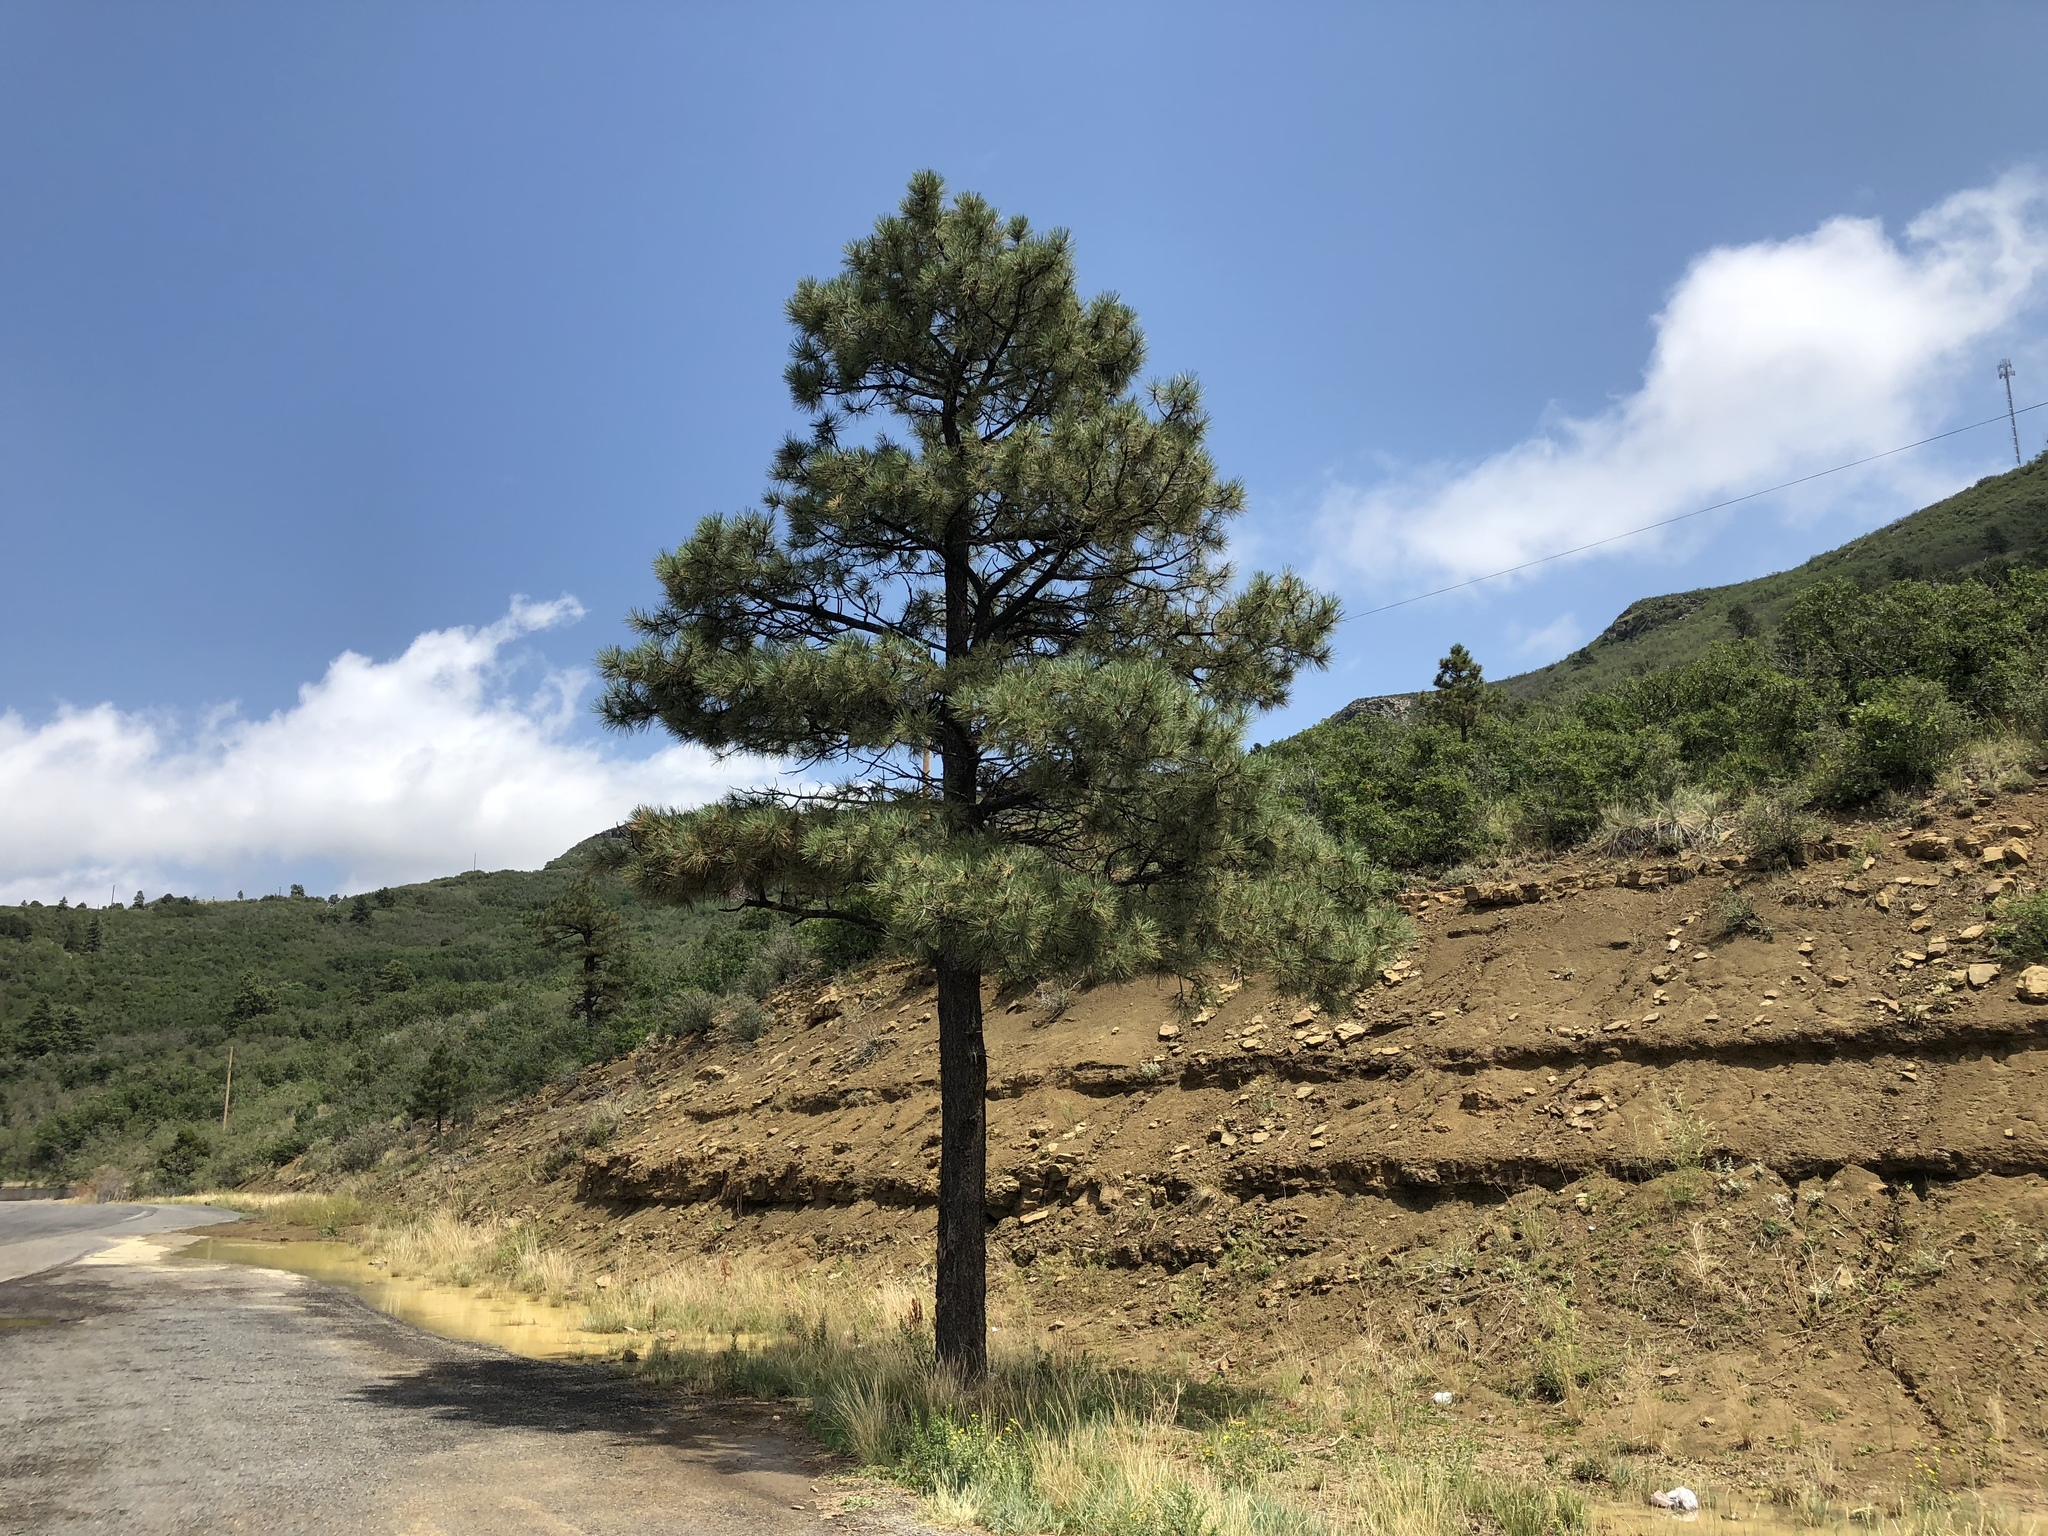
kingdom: Plantae
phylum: Tracheophyta
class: Pinopsida
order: Pinales
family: Pinaceae
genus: Pinus
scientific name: Pinus ponderosa
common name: Western yellow-pine
